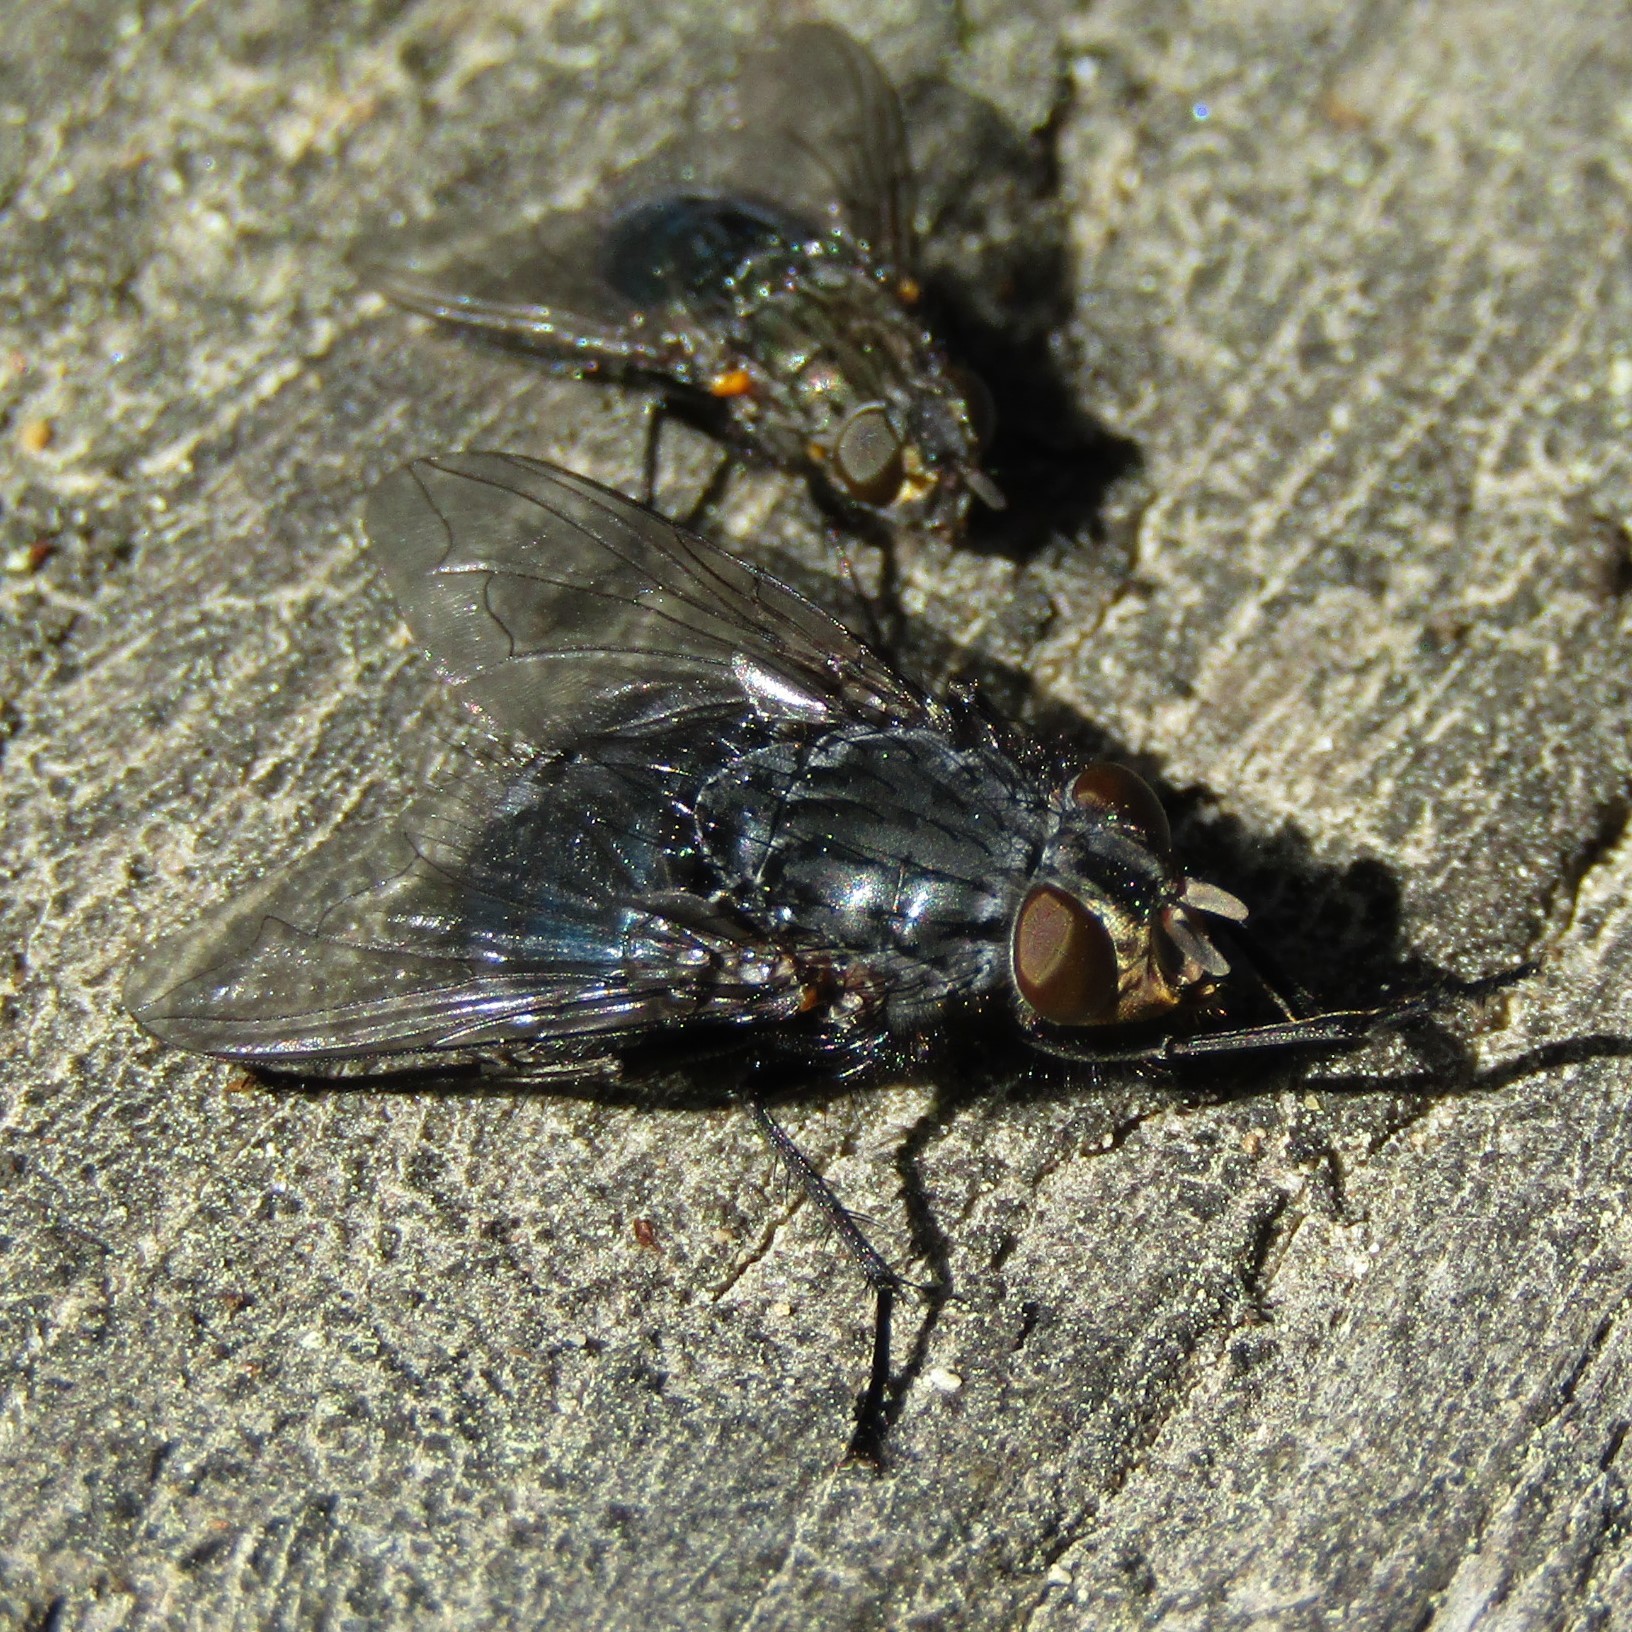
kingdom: Animalia
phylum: Arthropoda
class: Insecta
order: Diptera
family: Calliphoridae
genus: Calliphora
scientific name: Calliphora vicina
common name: Common blow flie
